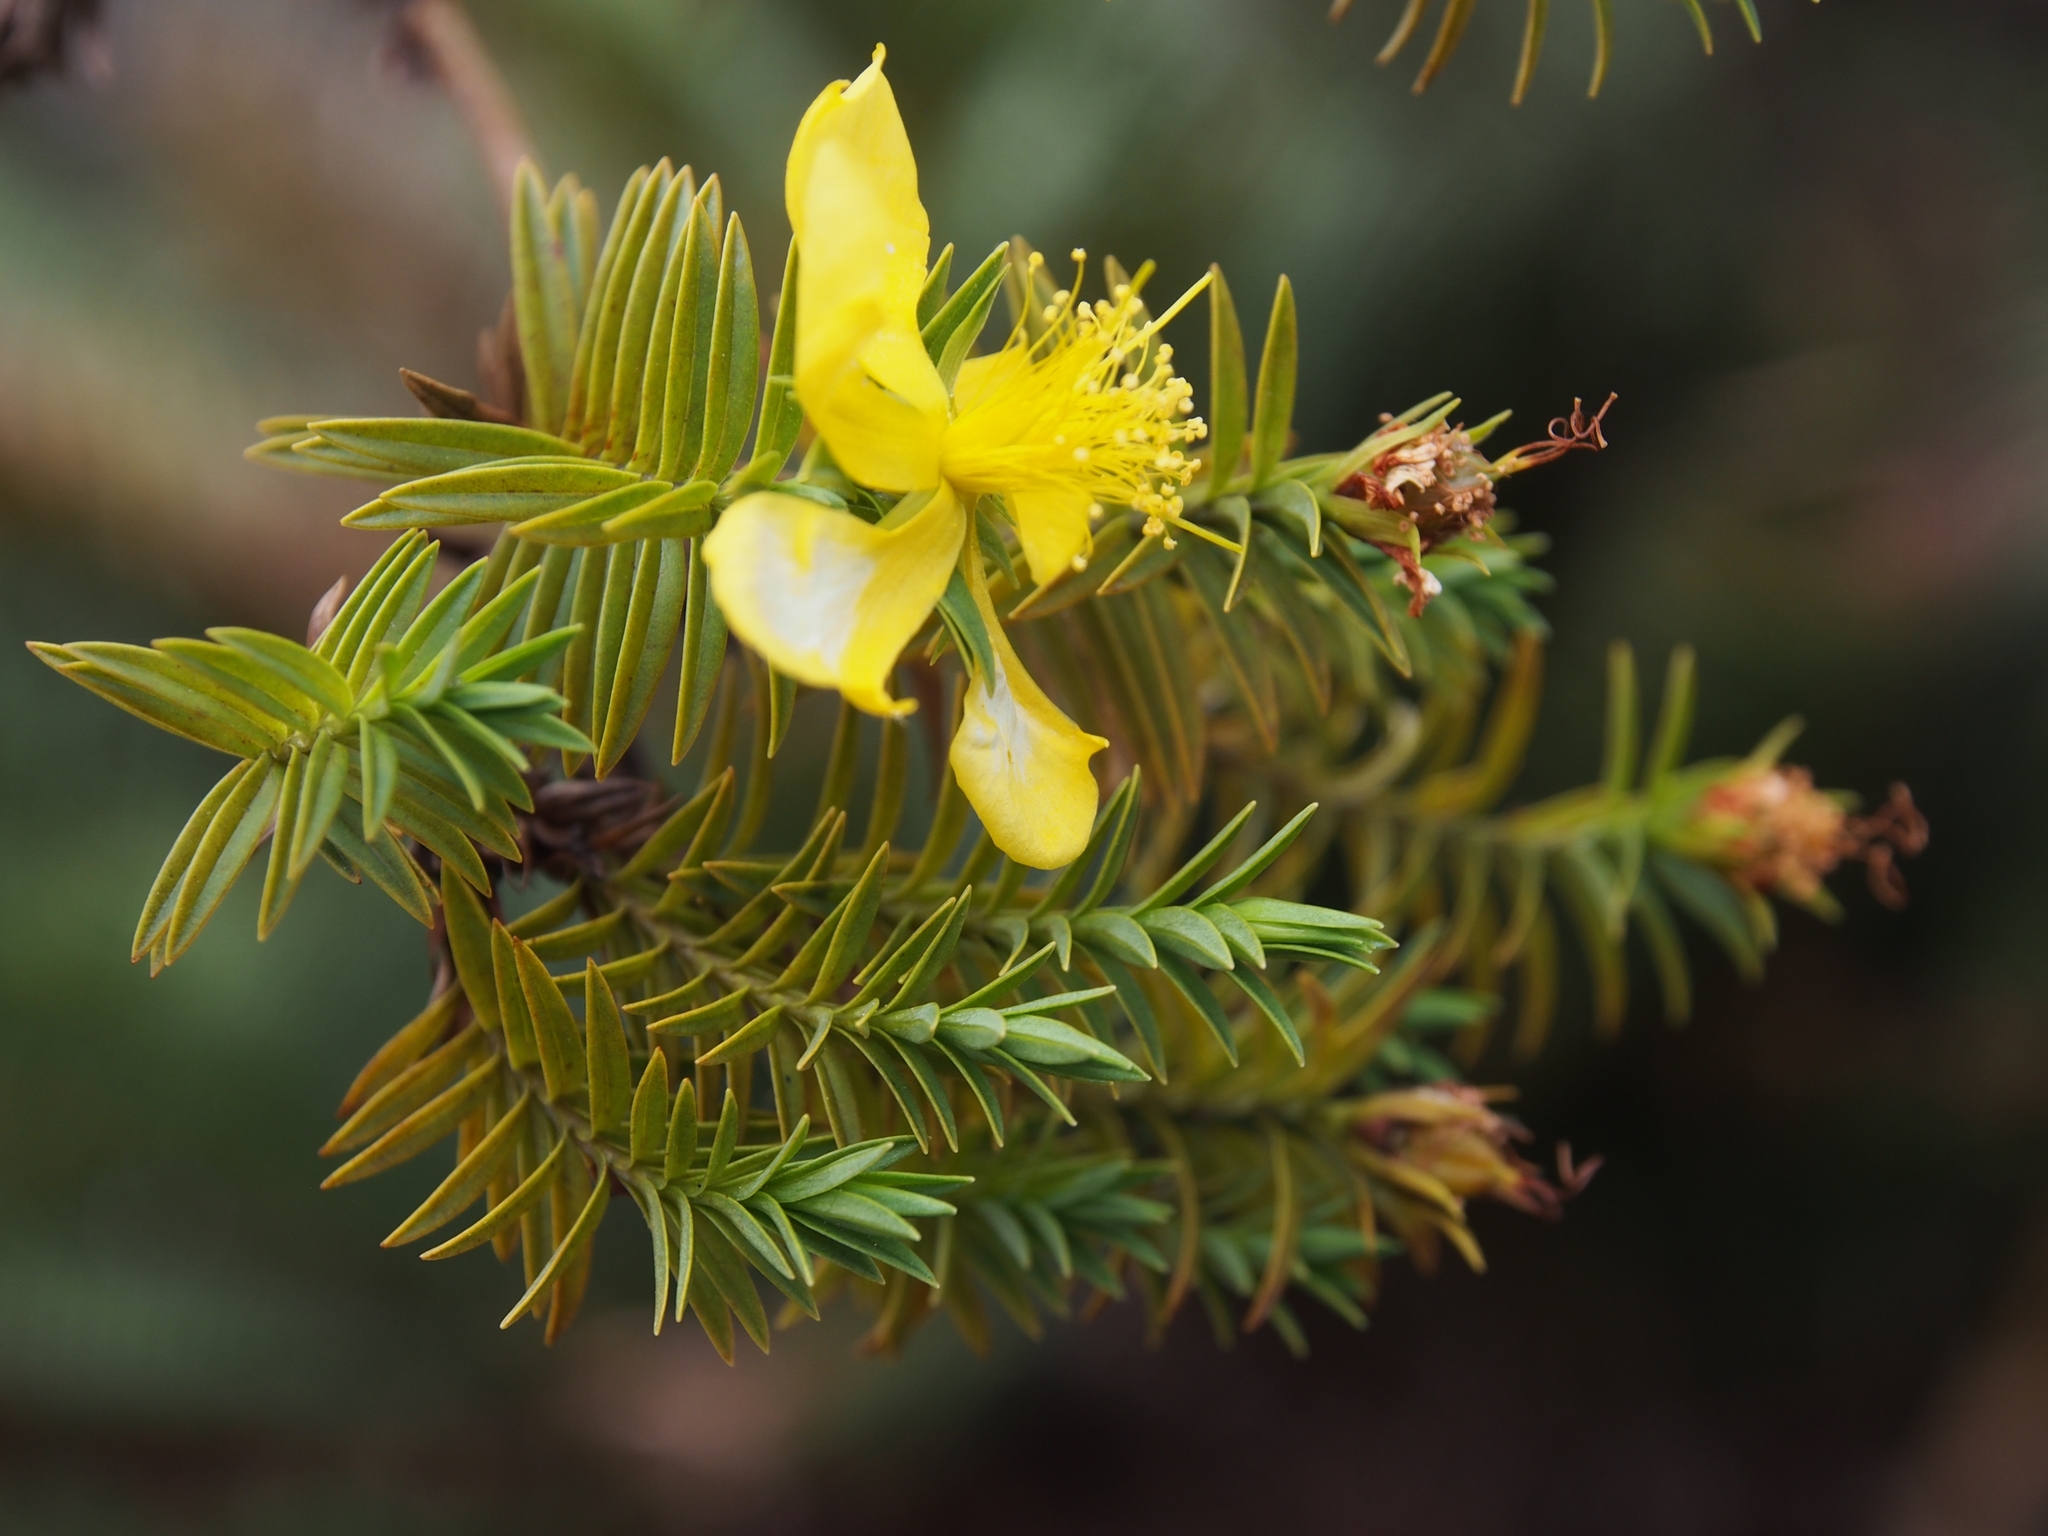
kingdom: Plantae
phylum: Tracheophyta
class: Magnoliopsida
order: Malpighiales
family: Hypericaceae
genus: Hypericum
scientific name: Hypericum irazuense
